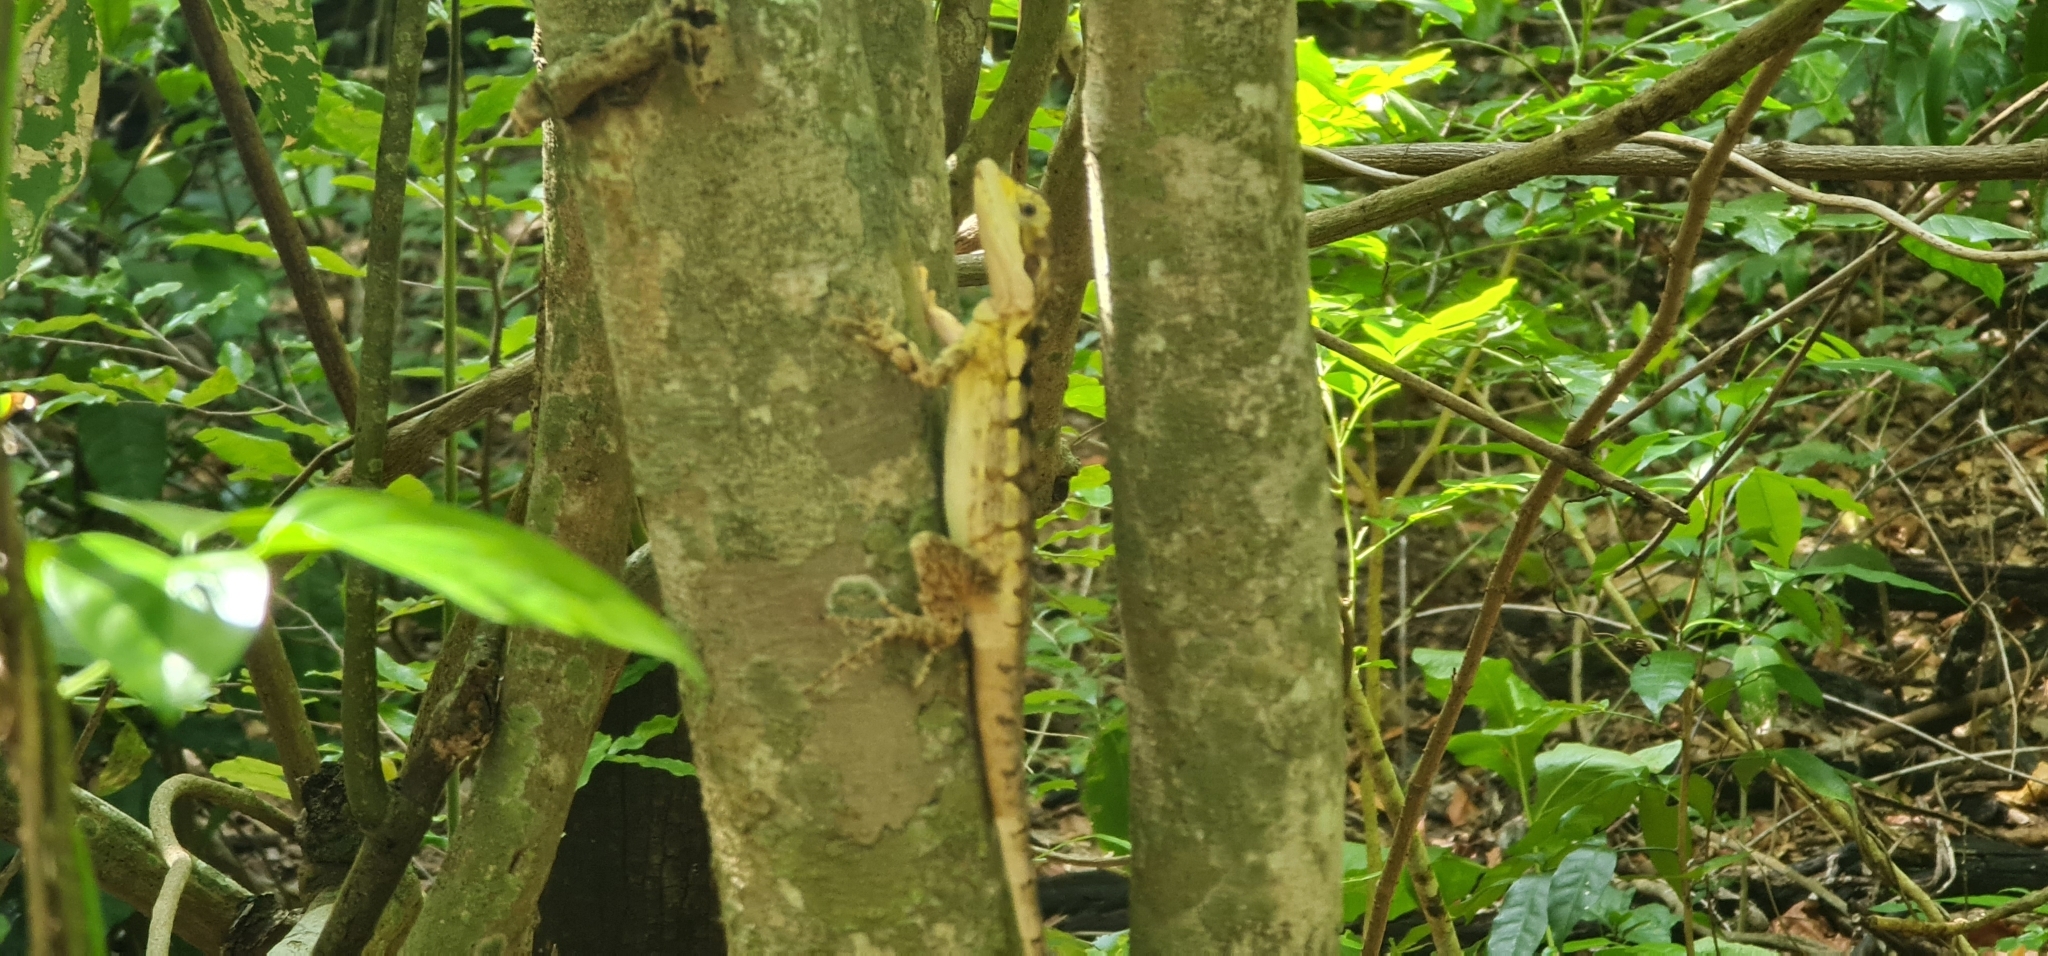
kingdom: Animalia
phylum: Chordata
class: Squamata
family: Agamidae
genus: Tropicagama
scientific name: Tropicagama temporalis
